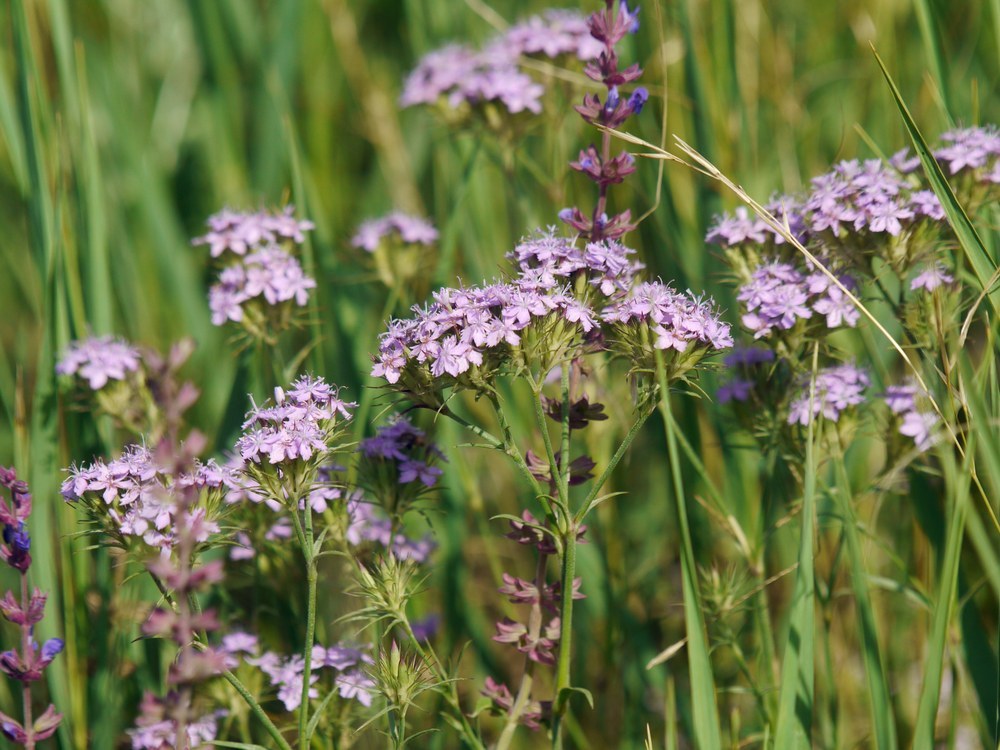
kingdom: Plantae
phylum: Tracheophyta
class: Magnoliopsida
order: Caryophyllales
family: Caryophyllaceae
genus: Dianthus
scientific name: Dianthus pseudarmeria
